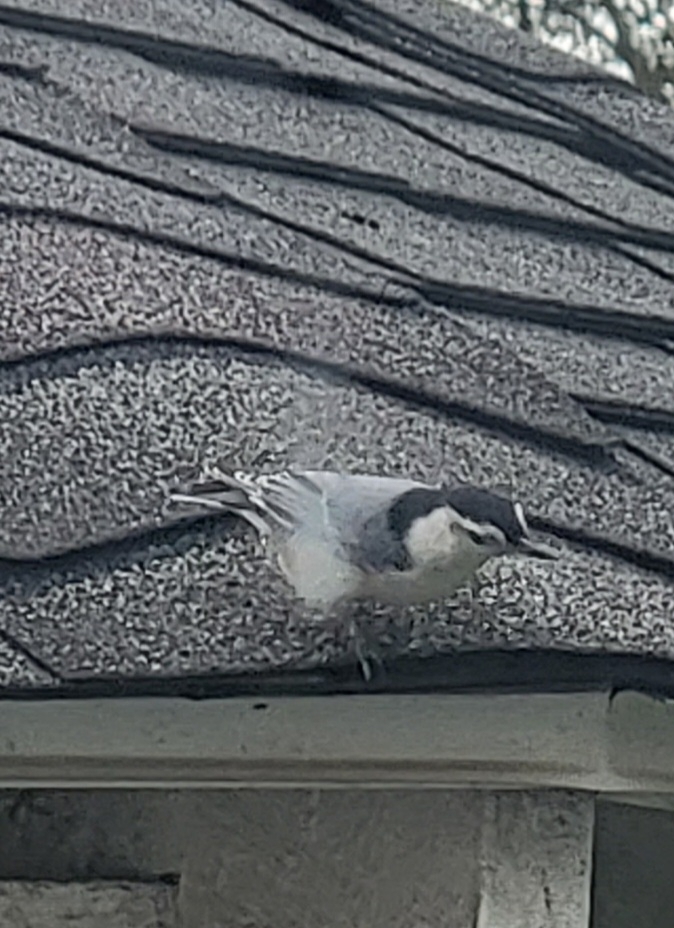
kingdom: Animalia
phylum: Chordata
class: Aves
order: Passeriformes
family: Sittidae
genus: Sitta
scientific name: Sitta carolinensis
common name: White-breasted nuthatch
